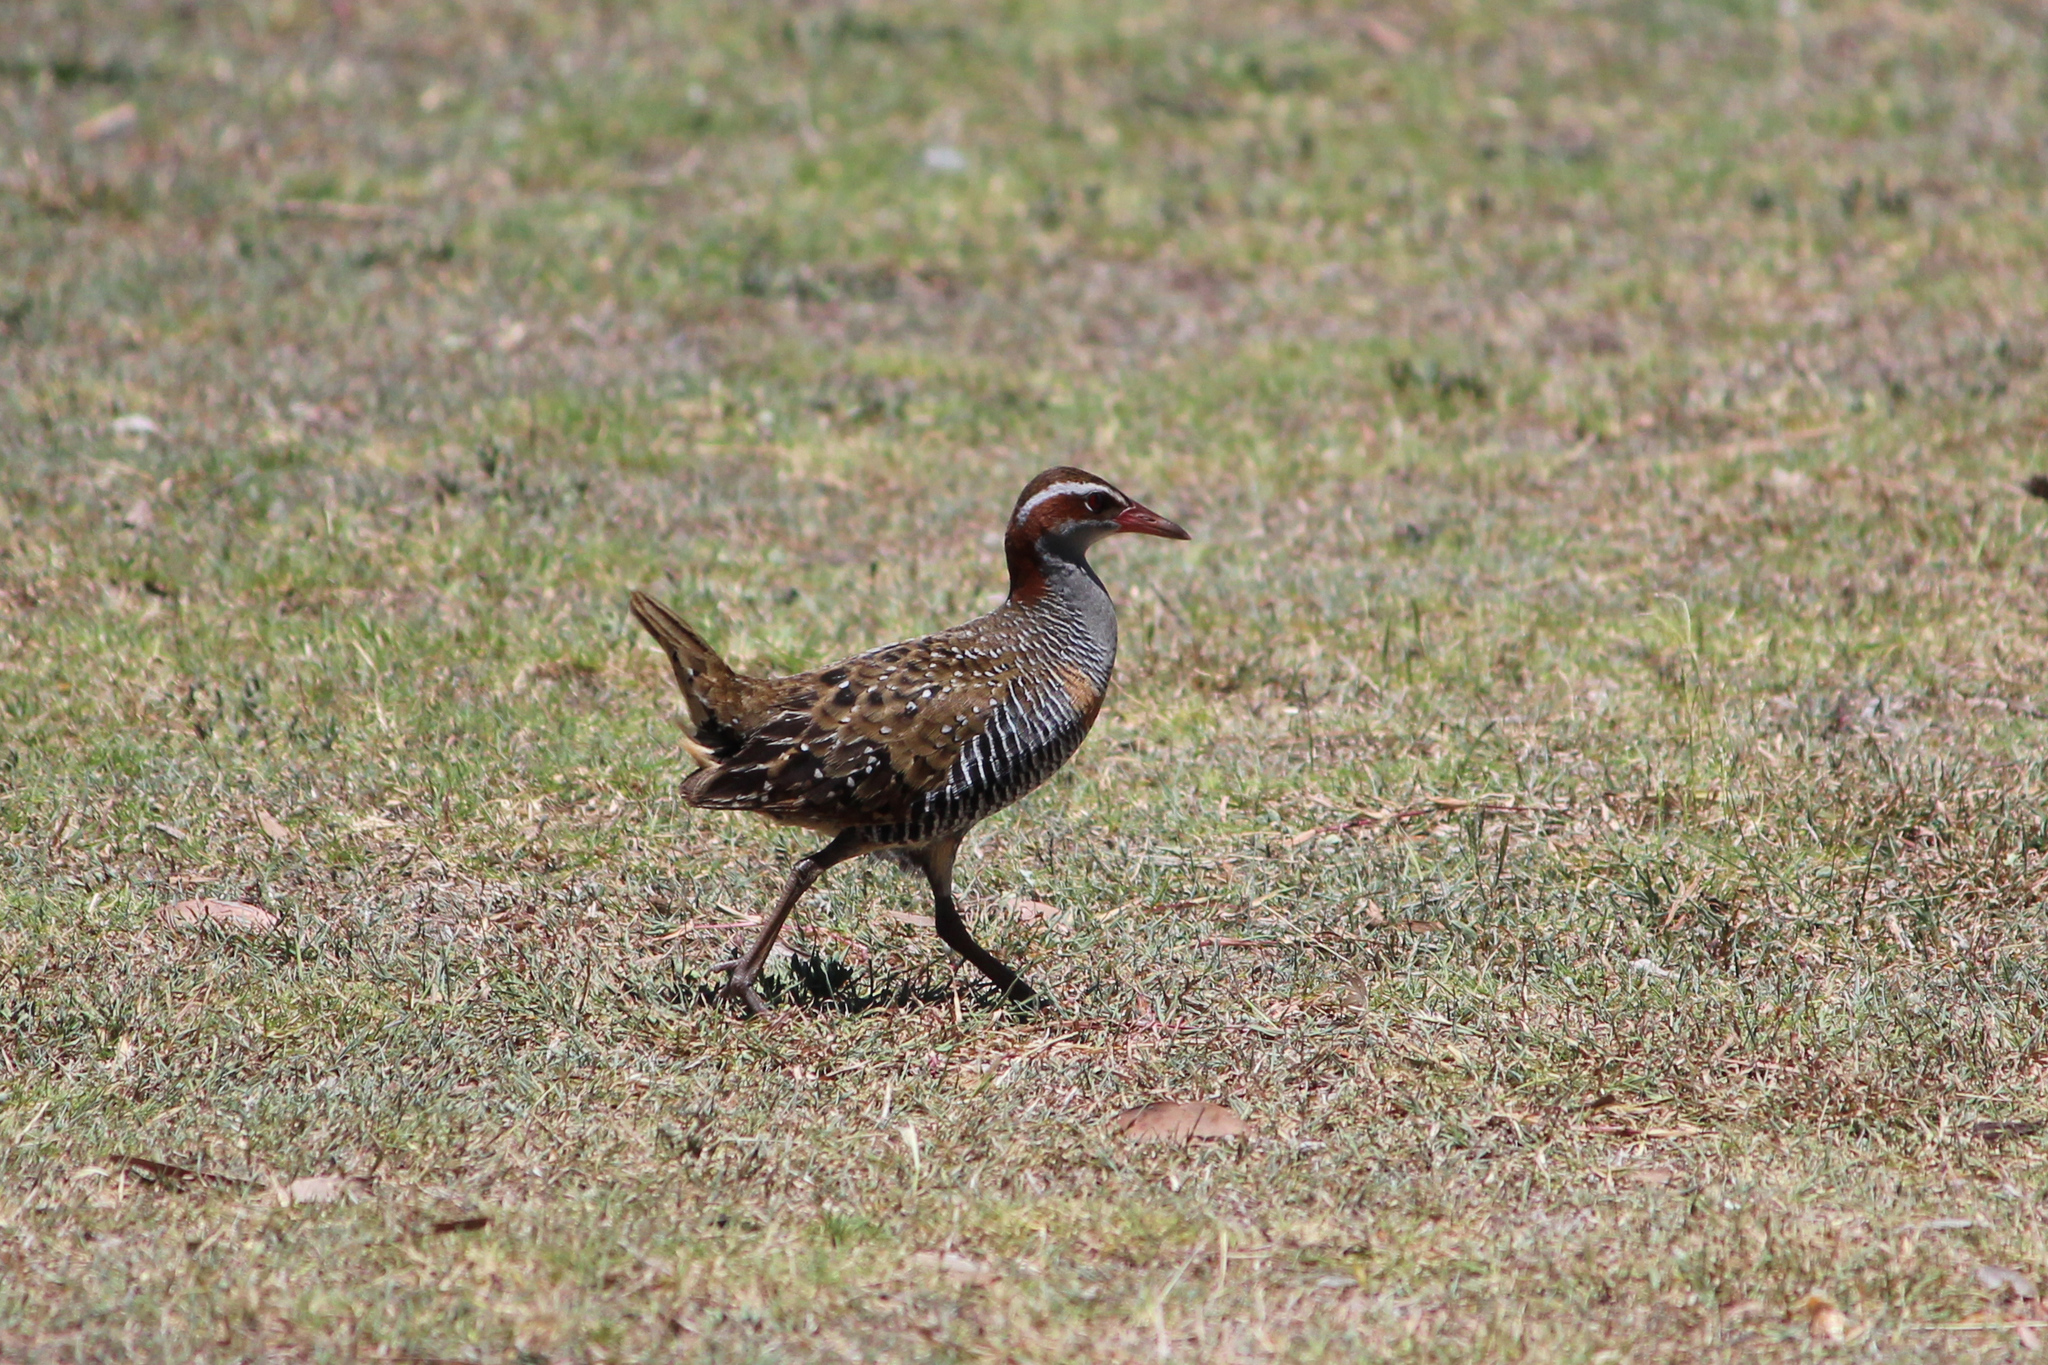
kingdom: Animalia
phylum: Chordata
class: Aves
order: Gruiformes
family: Rallidae
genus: Gallirallus
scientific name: Gallirallus philippensis
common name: Buff-banded rail
